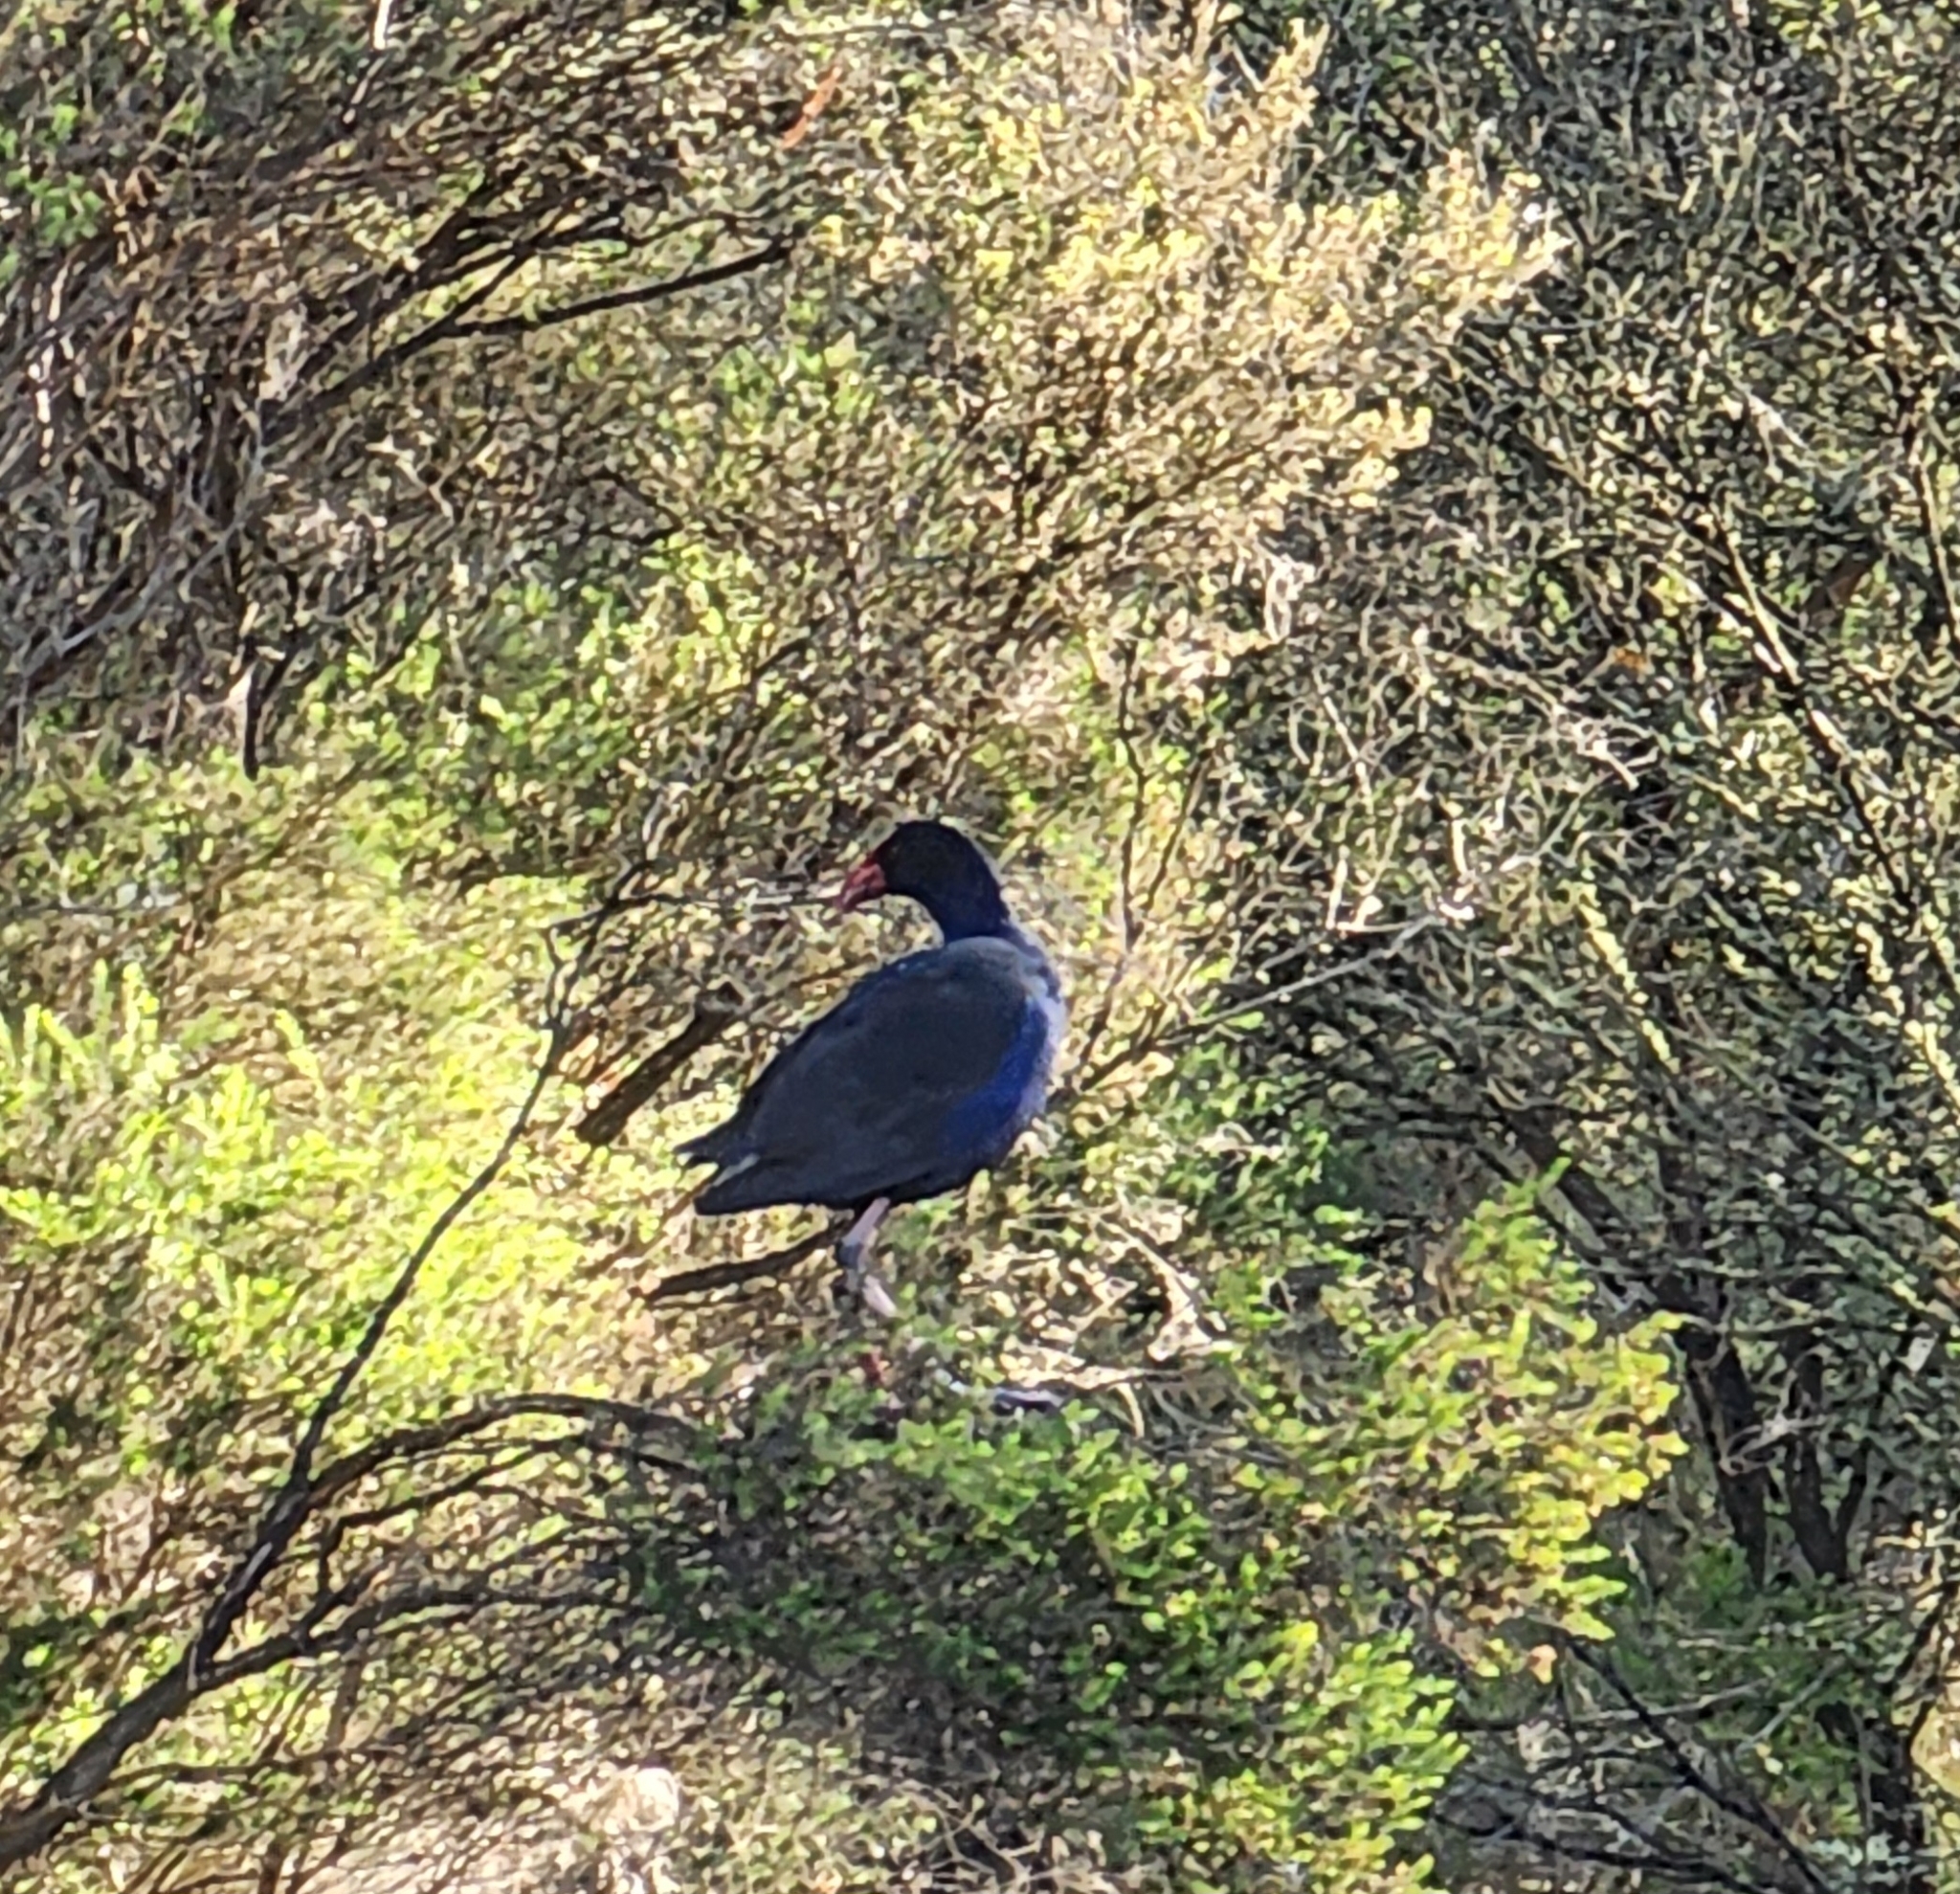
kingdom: Animalia
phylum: Chordata
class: Aves
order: Gruiformes
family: Rallidae
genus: Porphyrio
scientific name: Porphyrio melanotus
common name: Australasian swamphen
